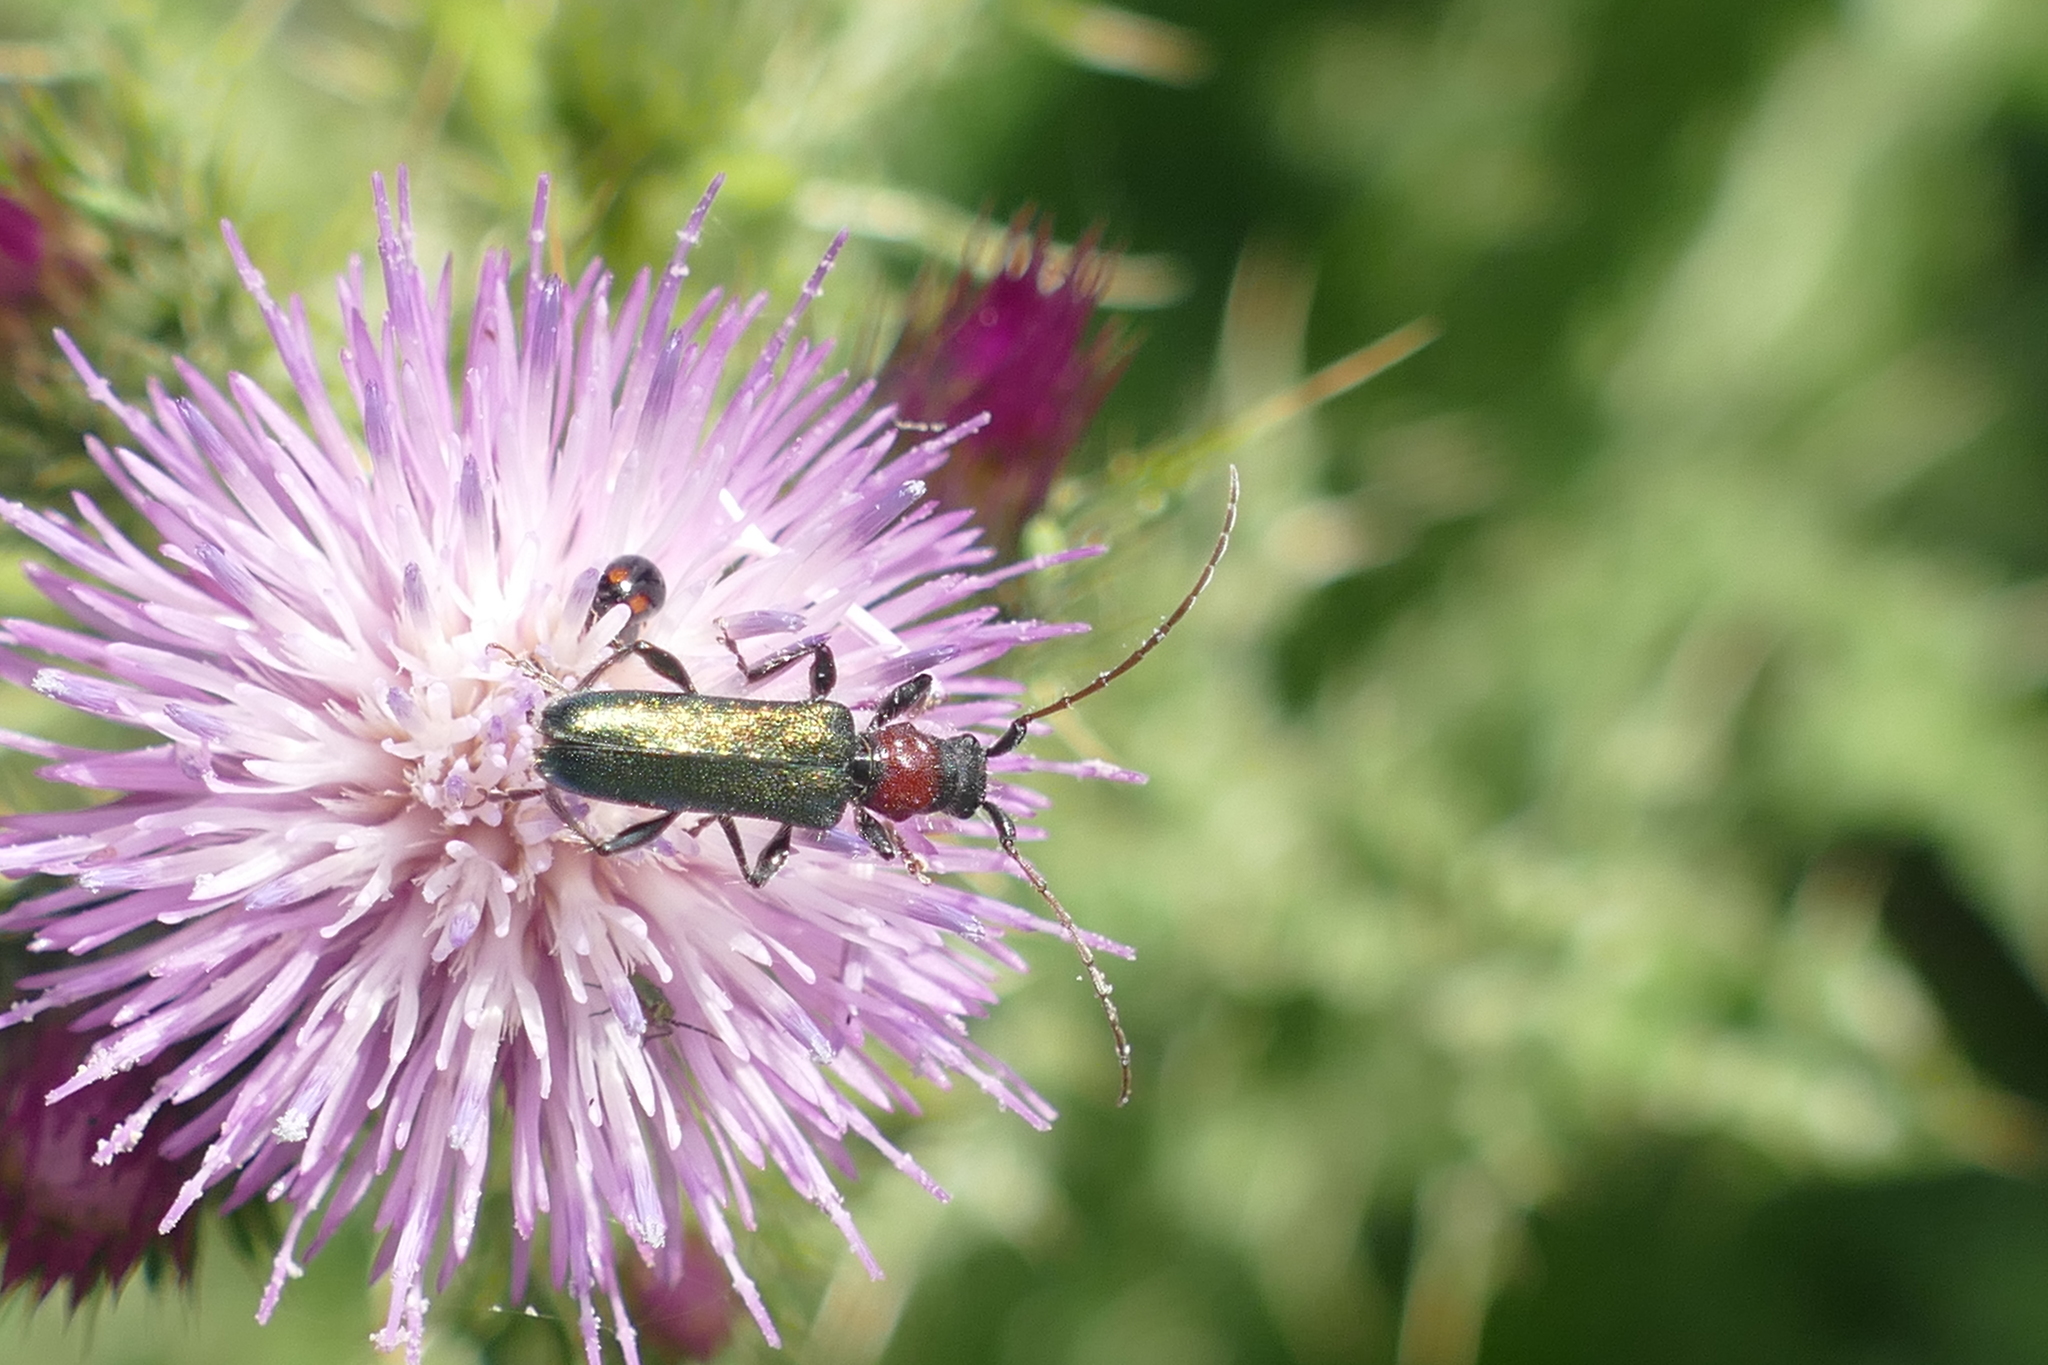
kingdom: Animalia
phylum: Arthropoda
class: Insecta
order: Coleoptera
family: Cerambycidae
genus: Certallum
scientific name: Certallum ebulinum
